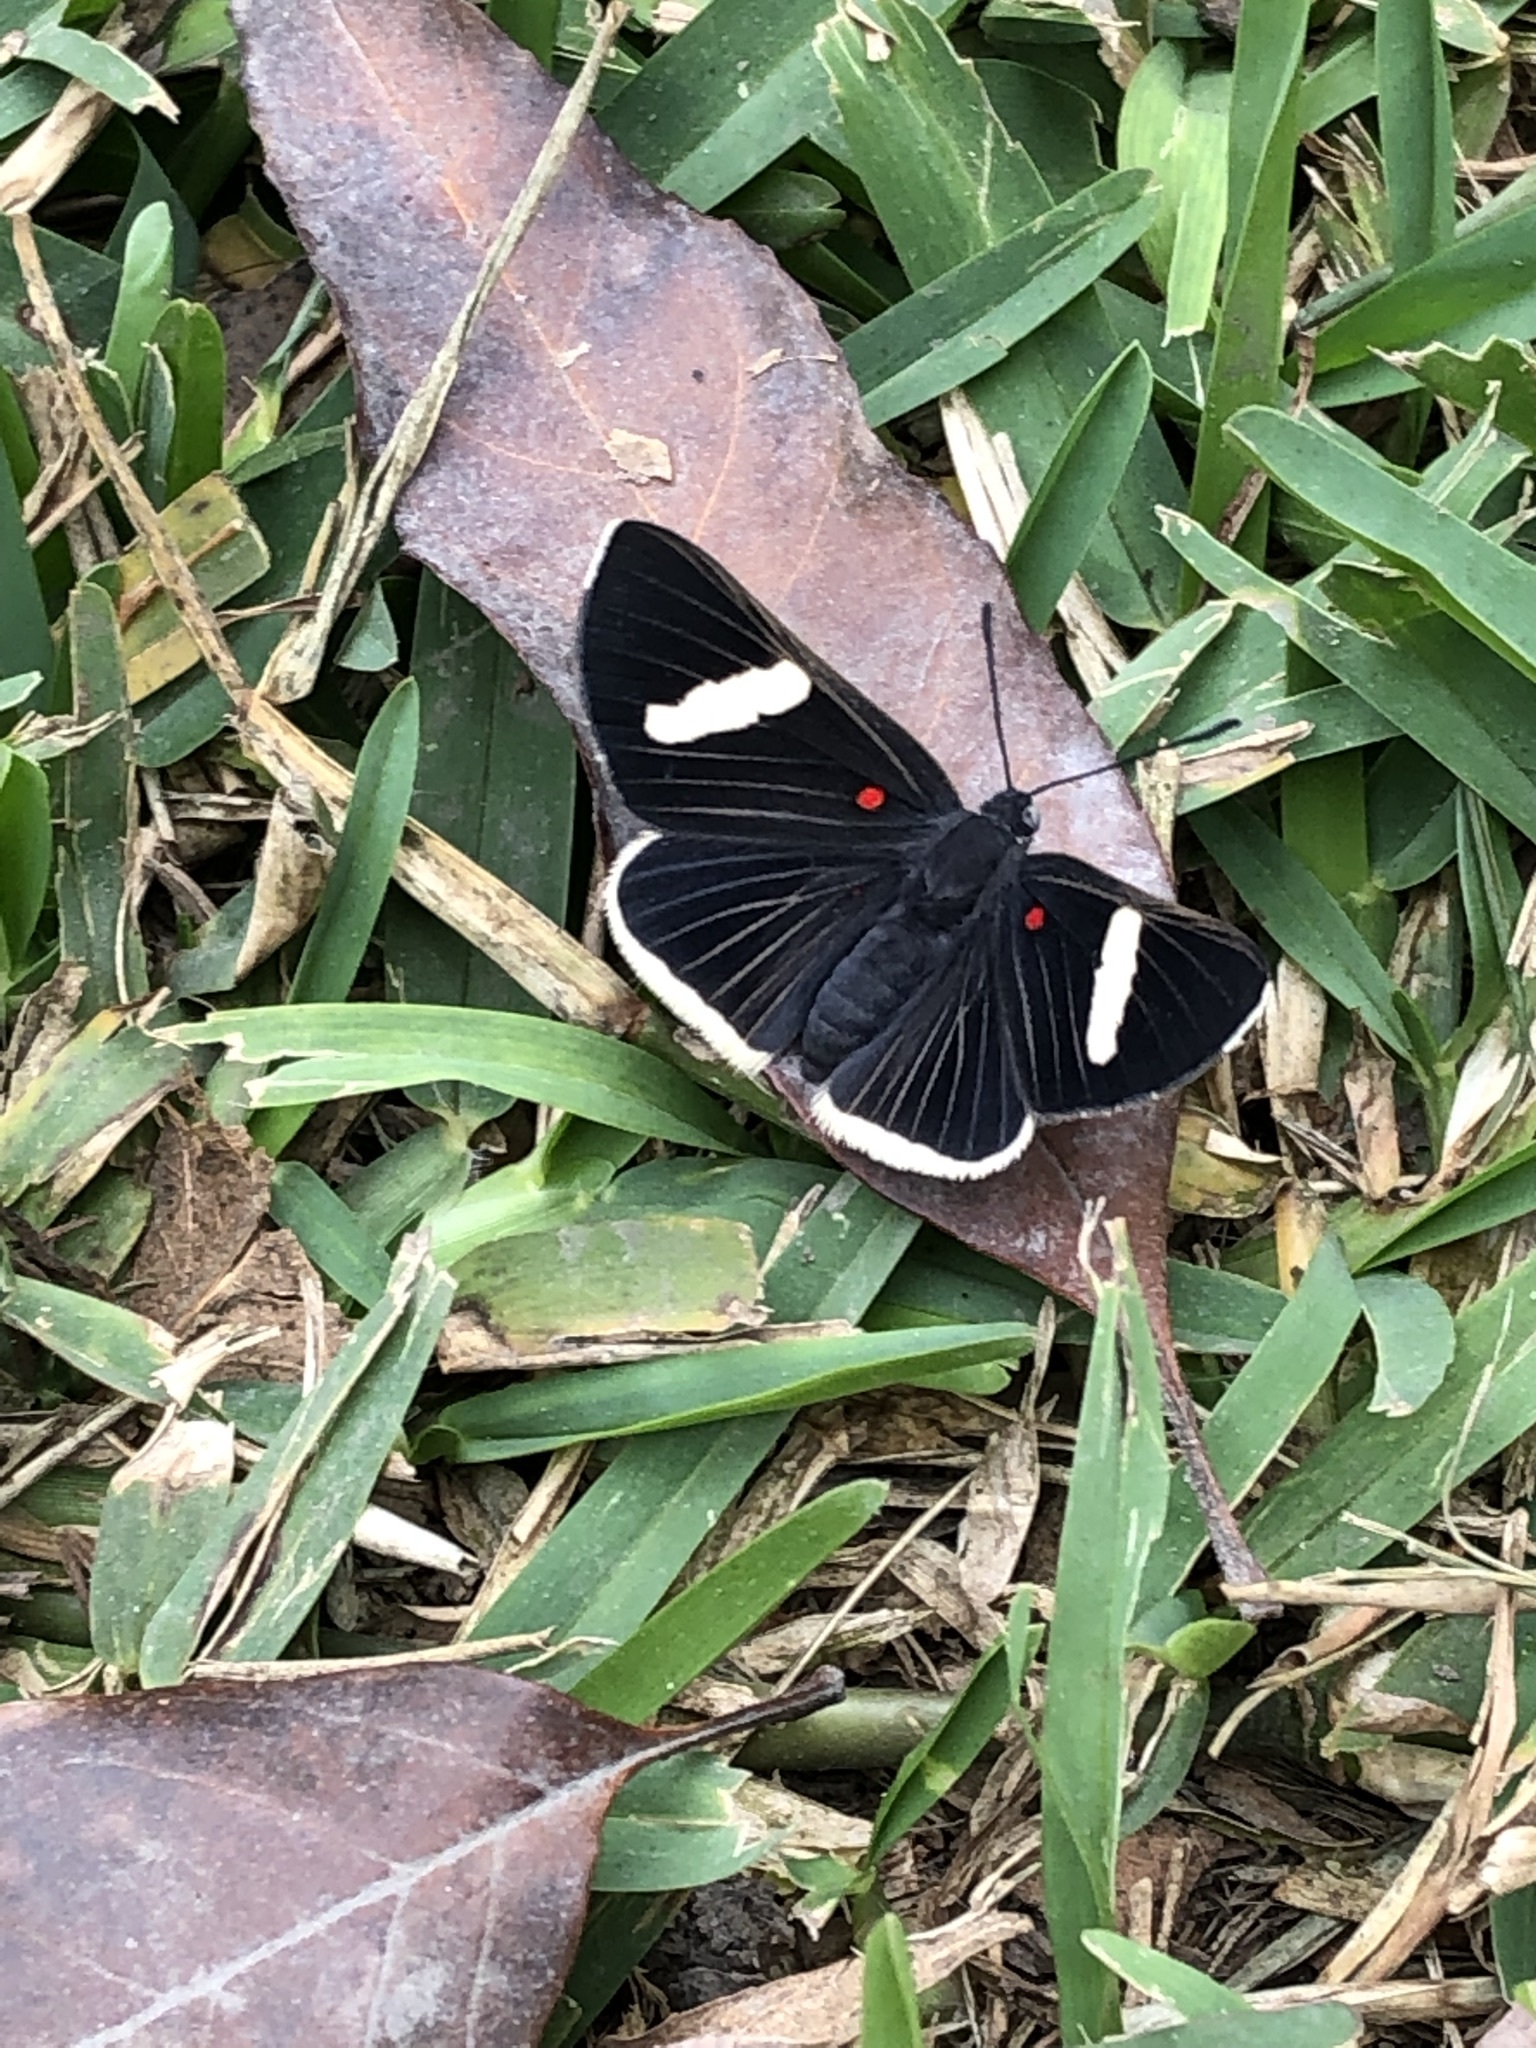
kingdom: Animalia
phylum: Arthropoda
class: Insecta
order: Lepidoptera
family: Lycaenidae
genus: Melanis
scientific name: Melanis
